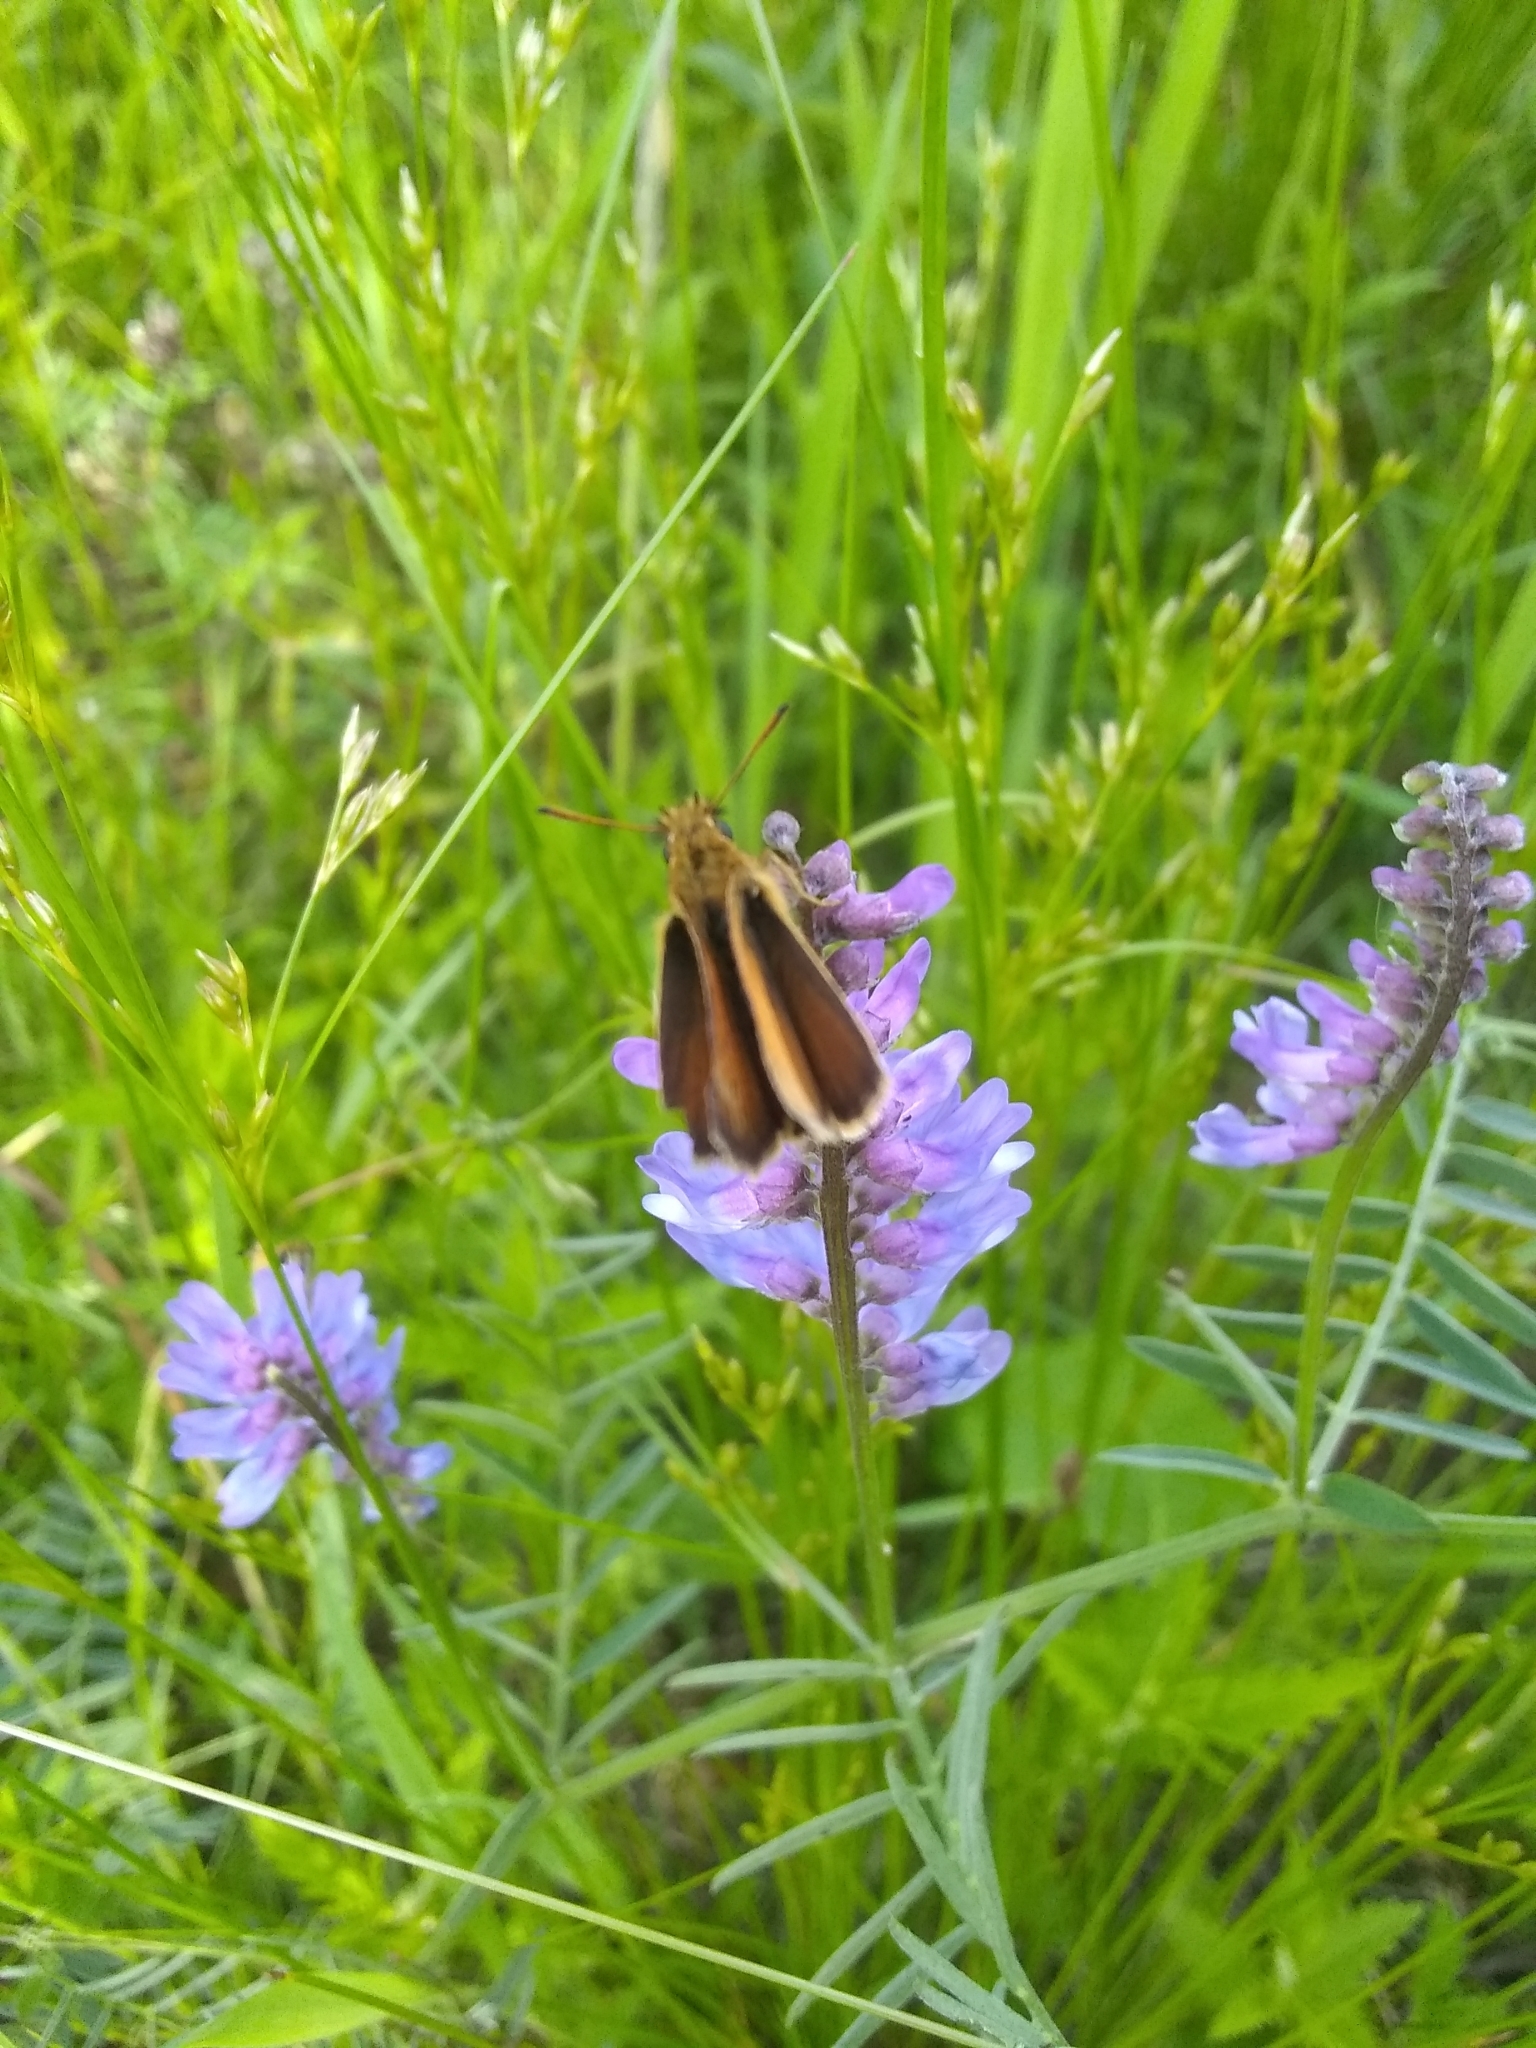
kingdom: Animalia
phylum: Arthropoda
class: Insecta
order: Lepidoptera
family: Hesperiidae
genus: Ancyloxypha
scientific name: Ancyloxypha numitor
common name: Least skipper
